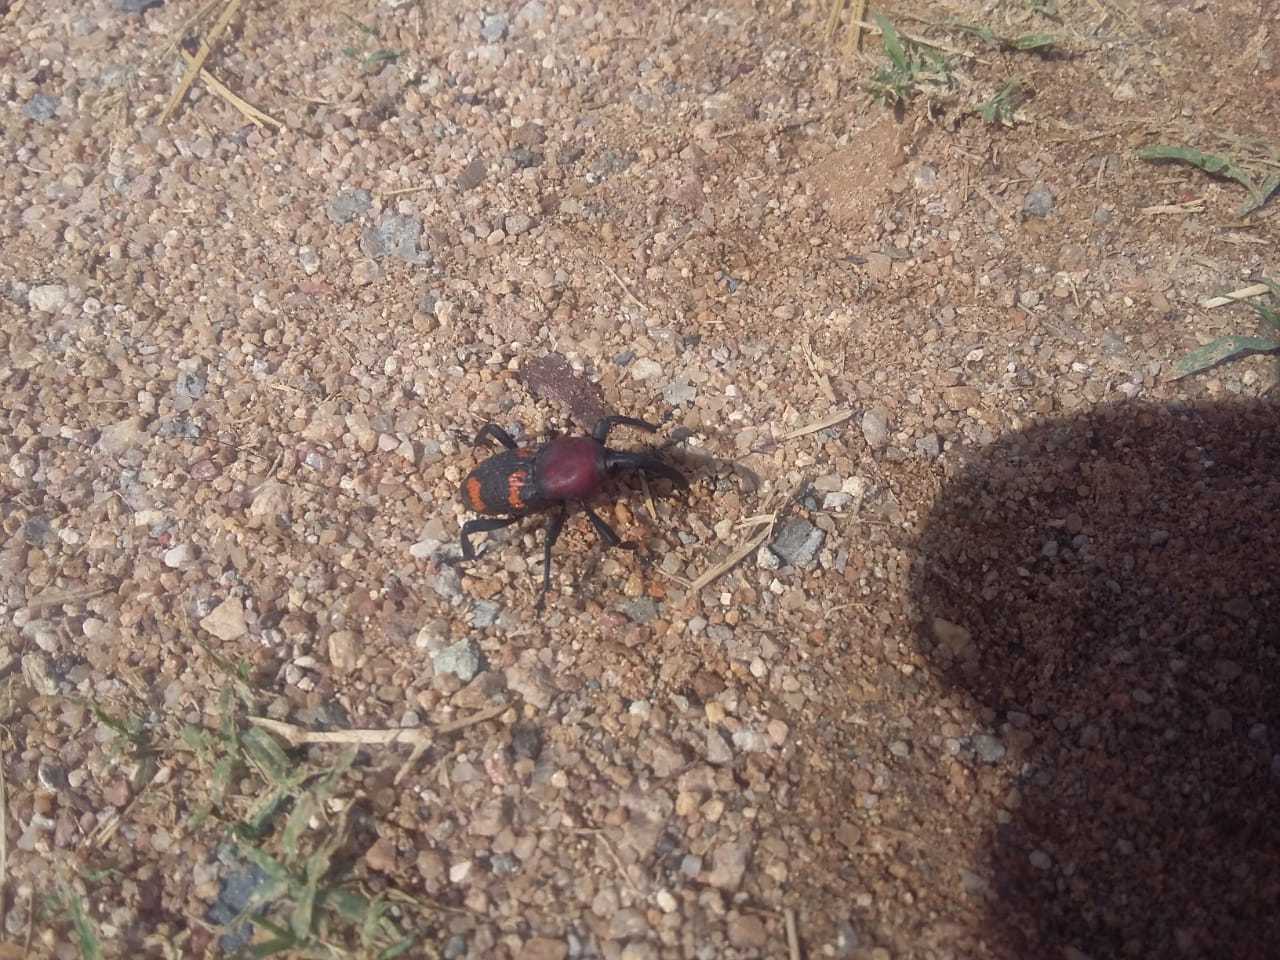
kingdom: Animalia
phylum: Arthropoda
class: Insecta
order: Coleoptera
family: Dryophthoridae
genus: Cactophagus
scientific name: Cactophagus
